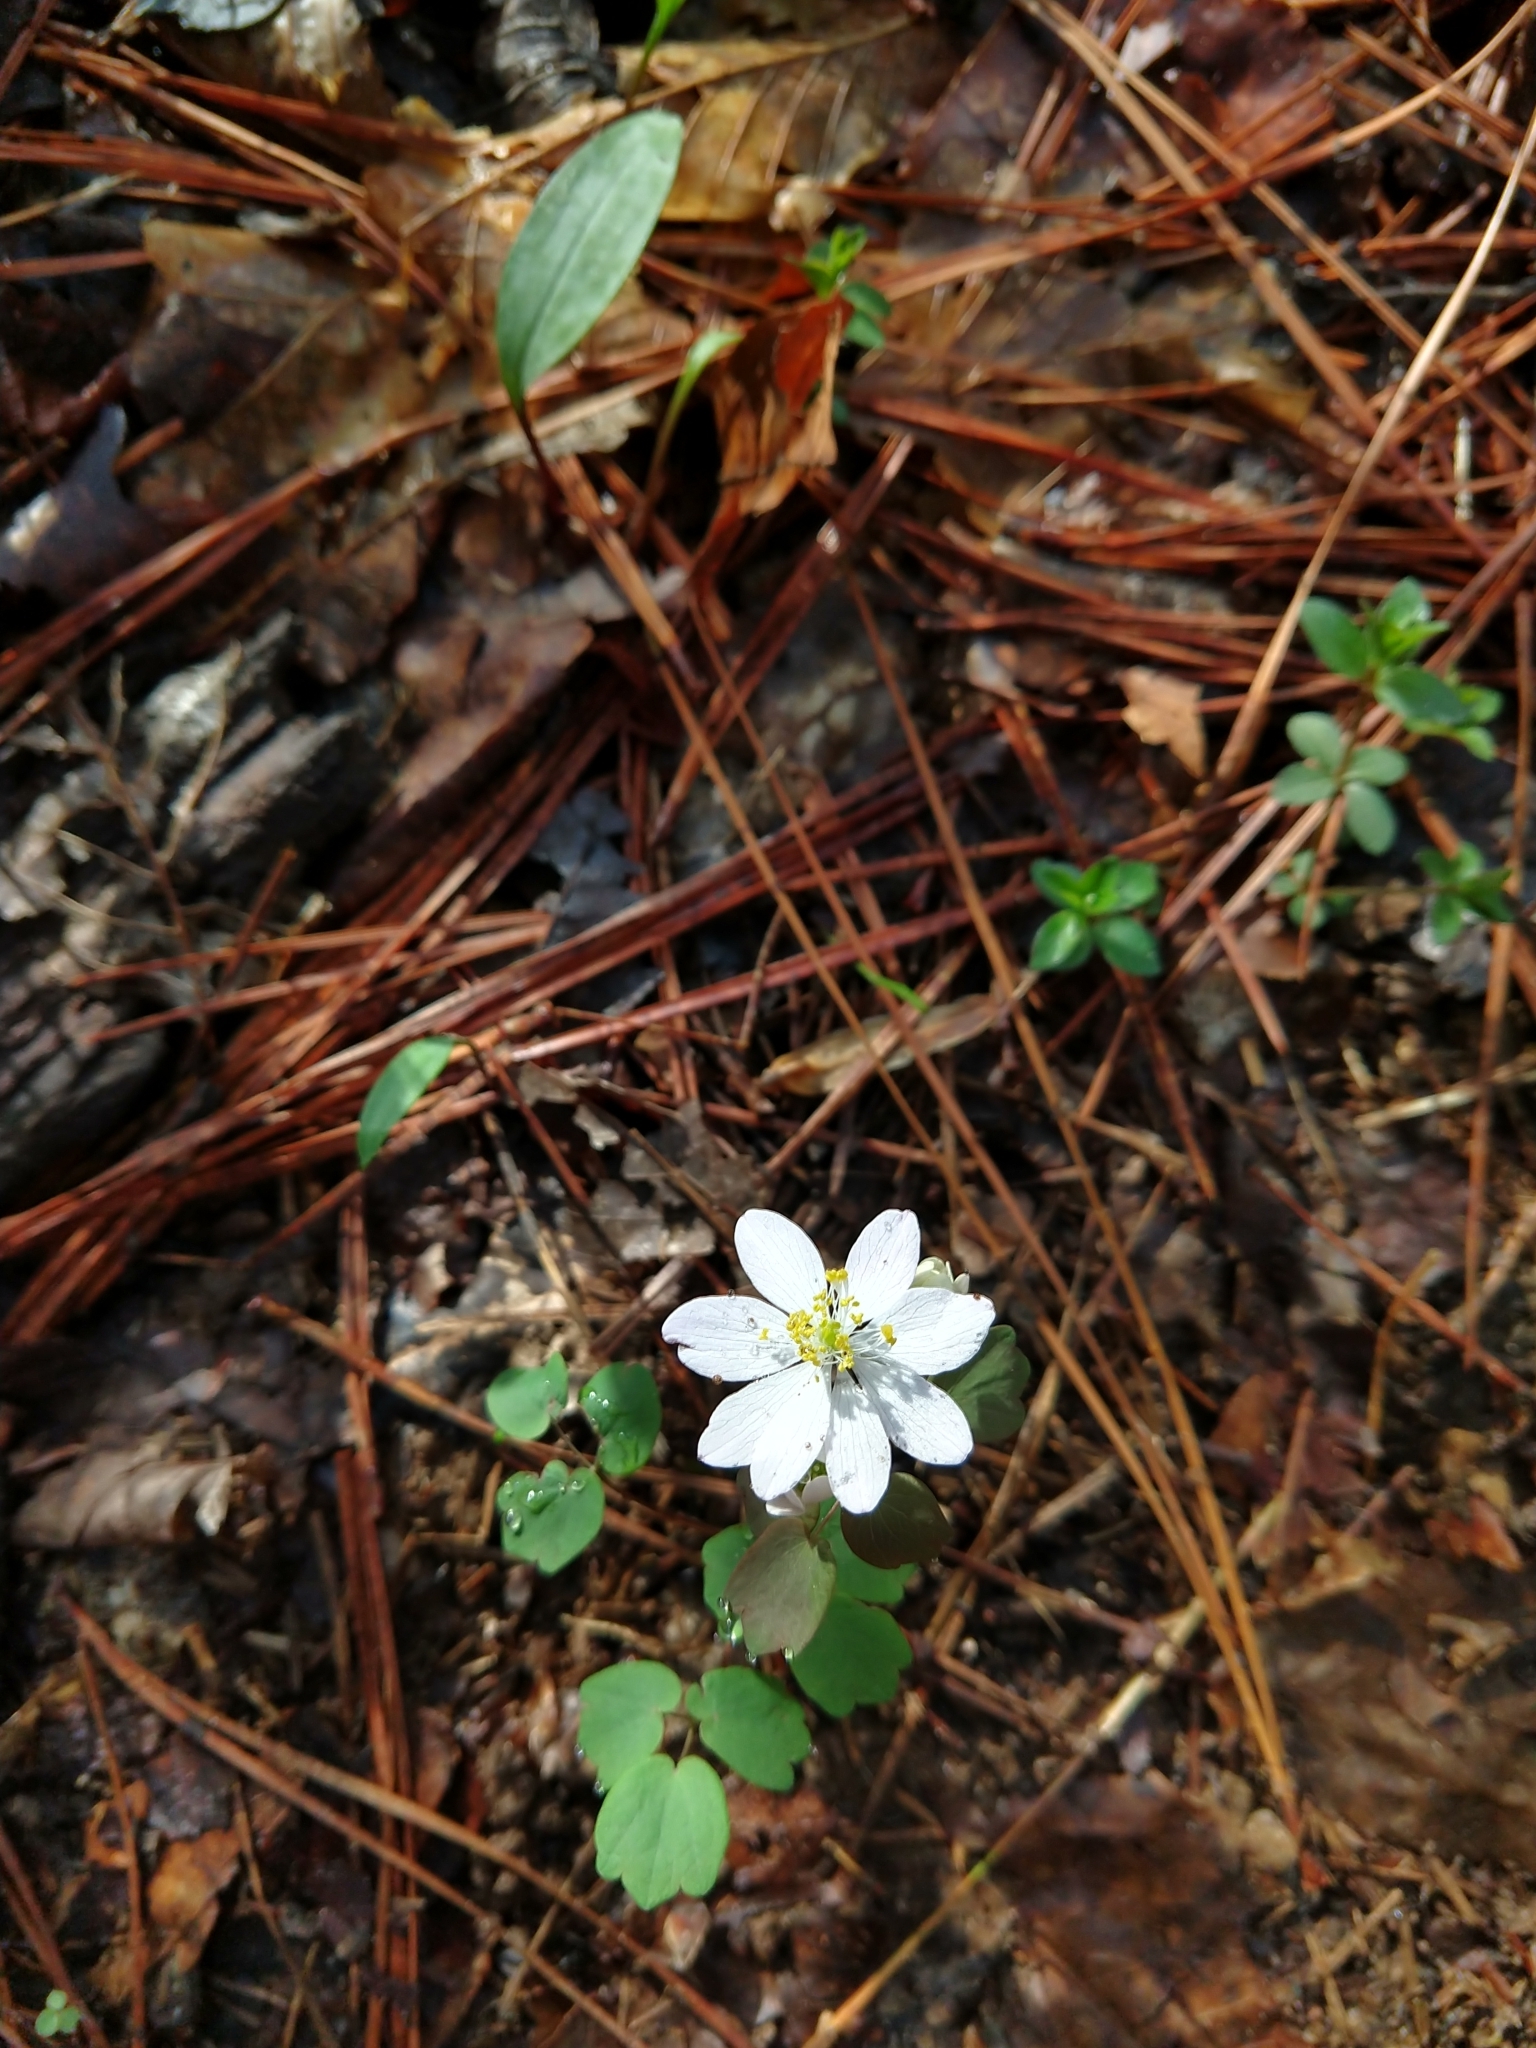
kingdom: Plantae
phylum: Tracheophyta
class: Magnoliopsida
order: Ranunculales
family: Ranunculaceae
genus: Thalictrum
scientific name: Thalictrum thalictroides
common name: Rue-anemone
